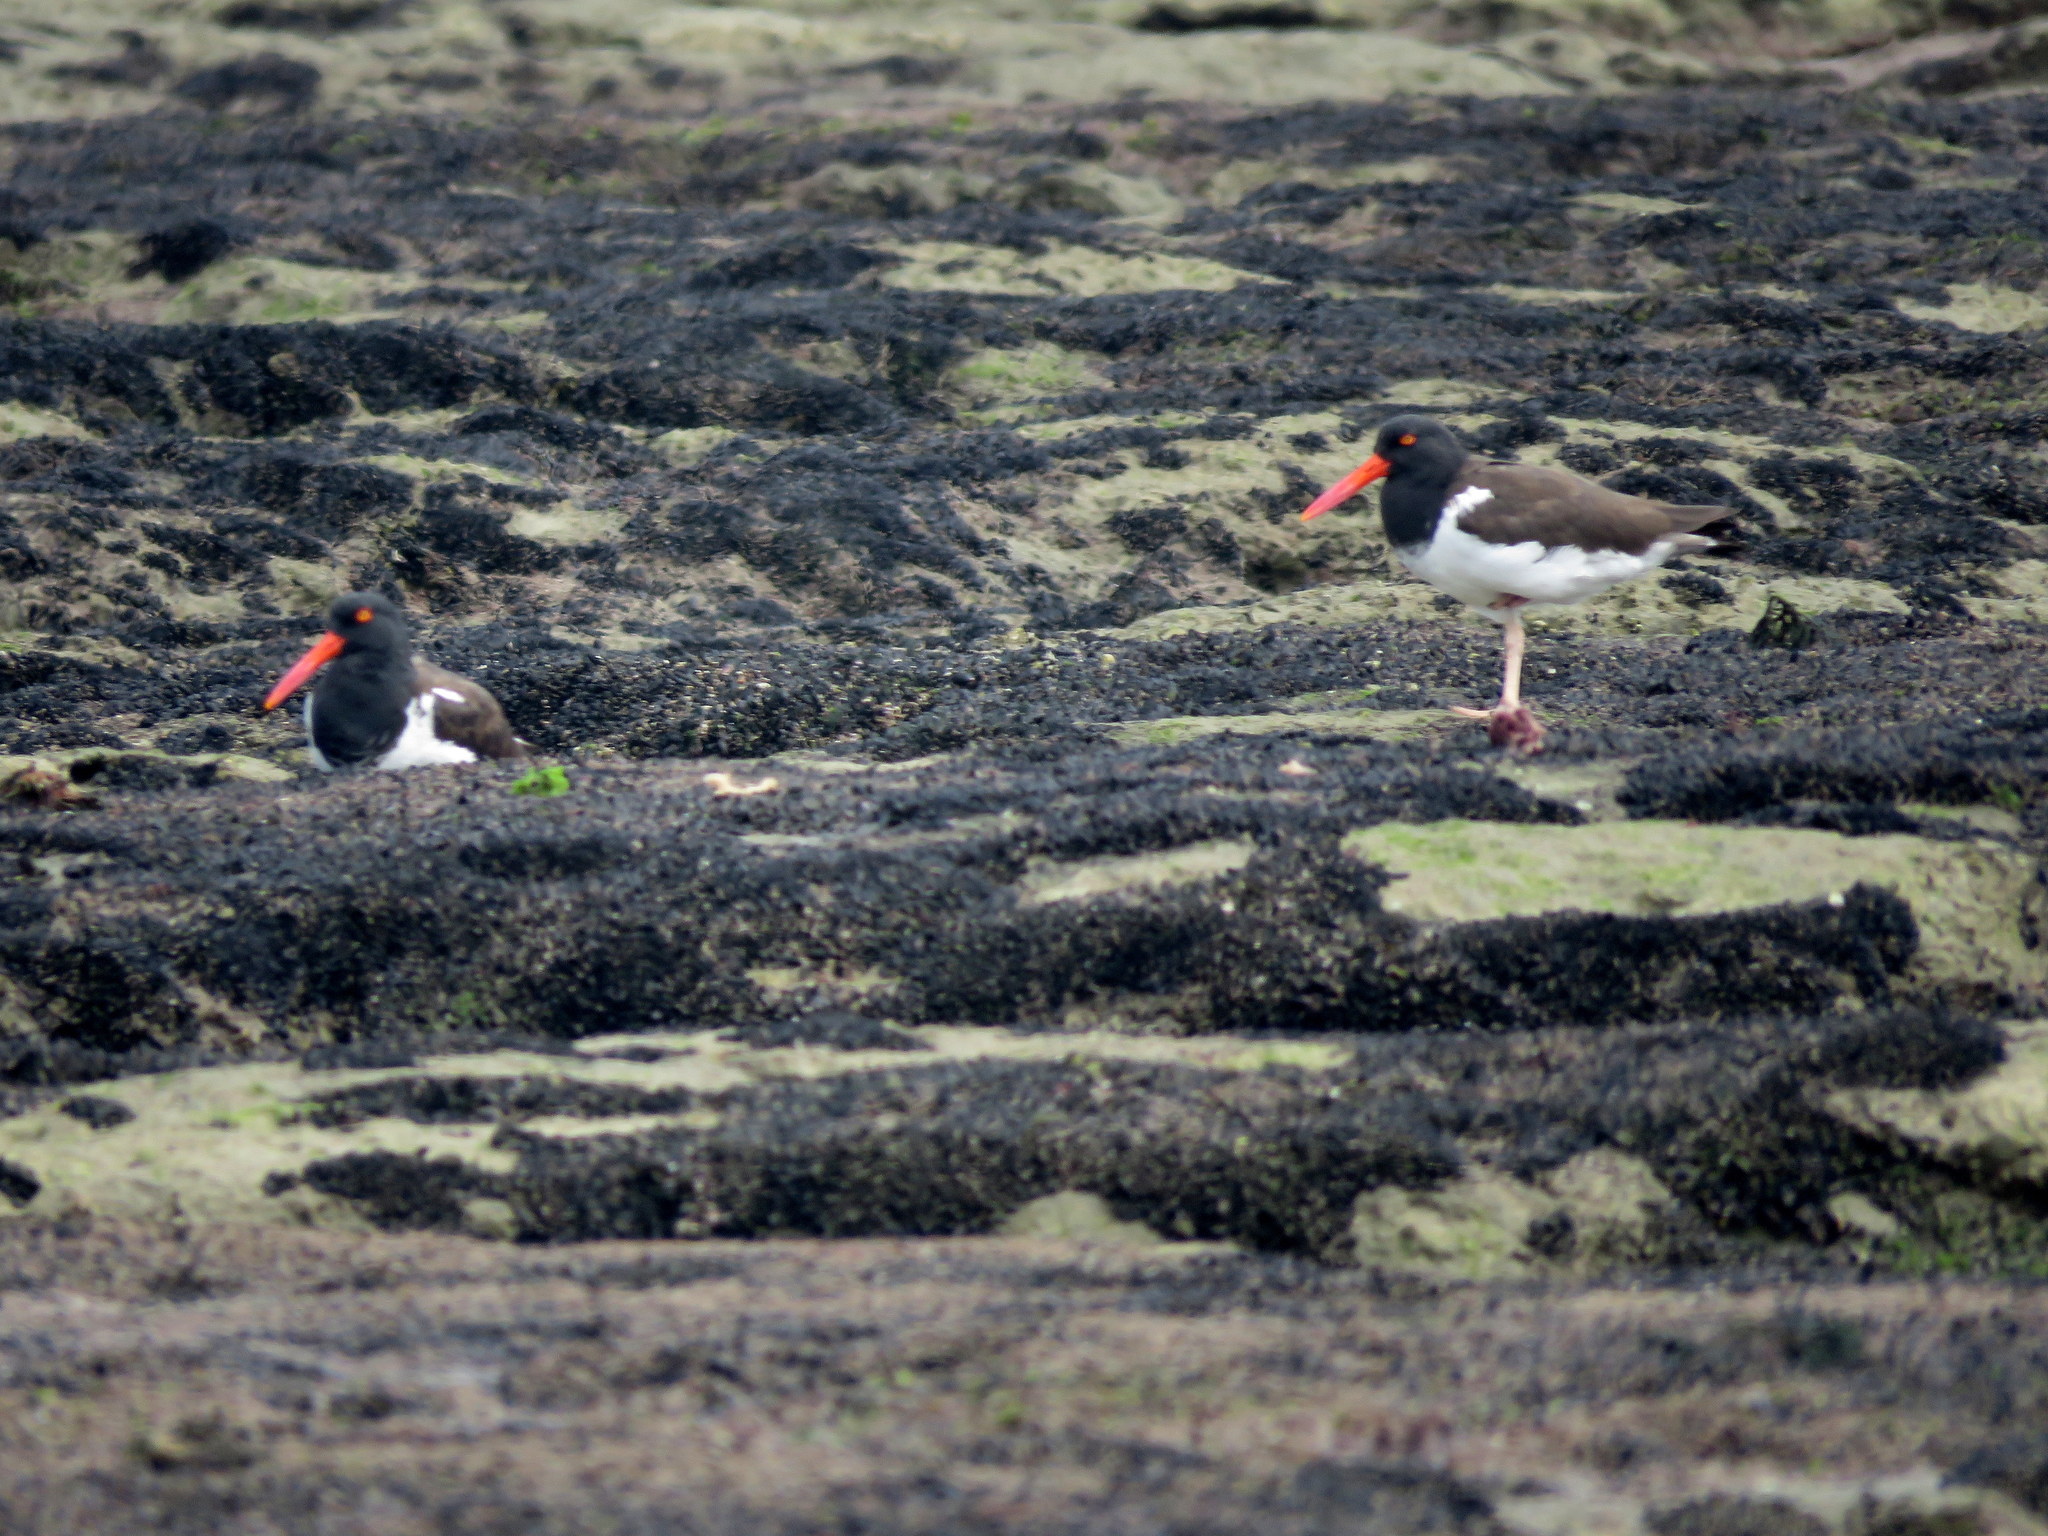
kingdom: Animalia
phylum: Chordata
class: Aves
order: Charadriiformes
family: Haematopodidae
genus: Haematopus
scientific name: Haematopus palliatus
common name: American oystercatcher
